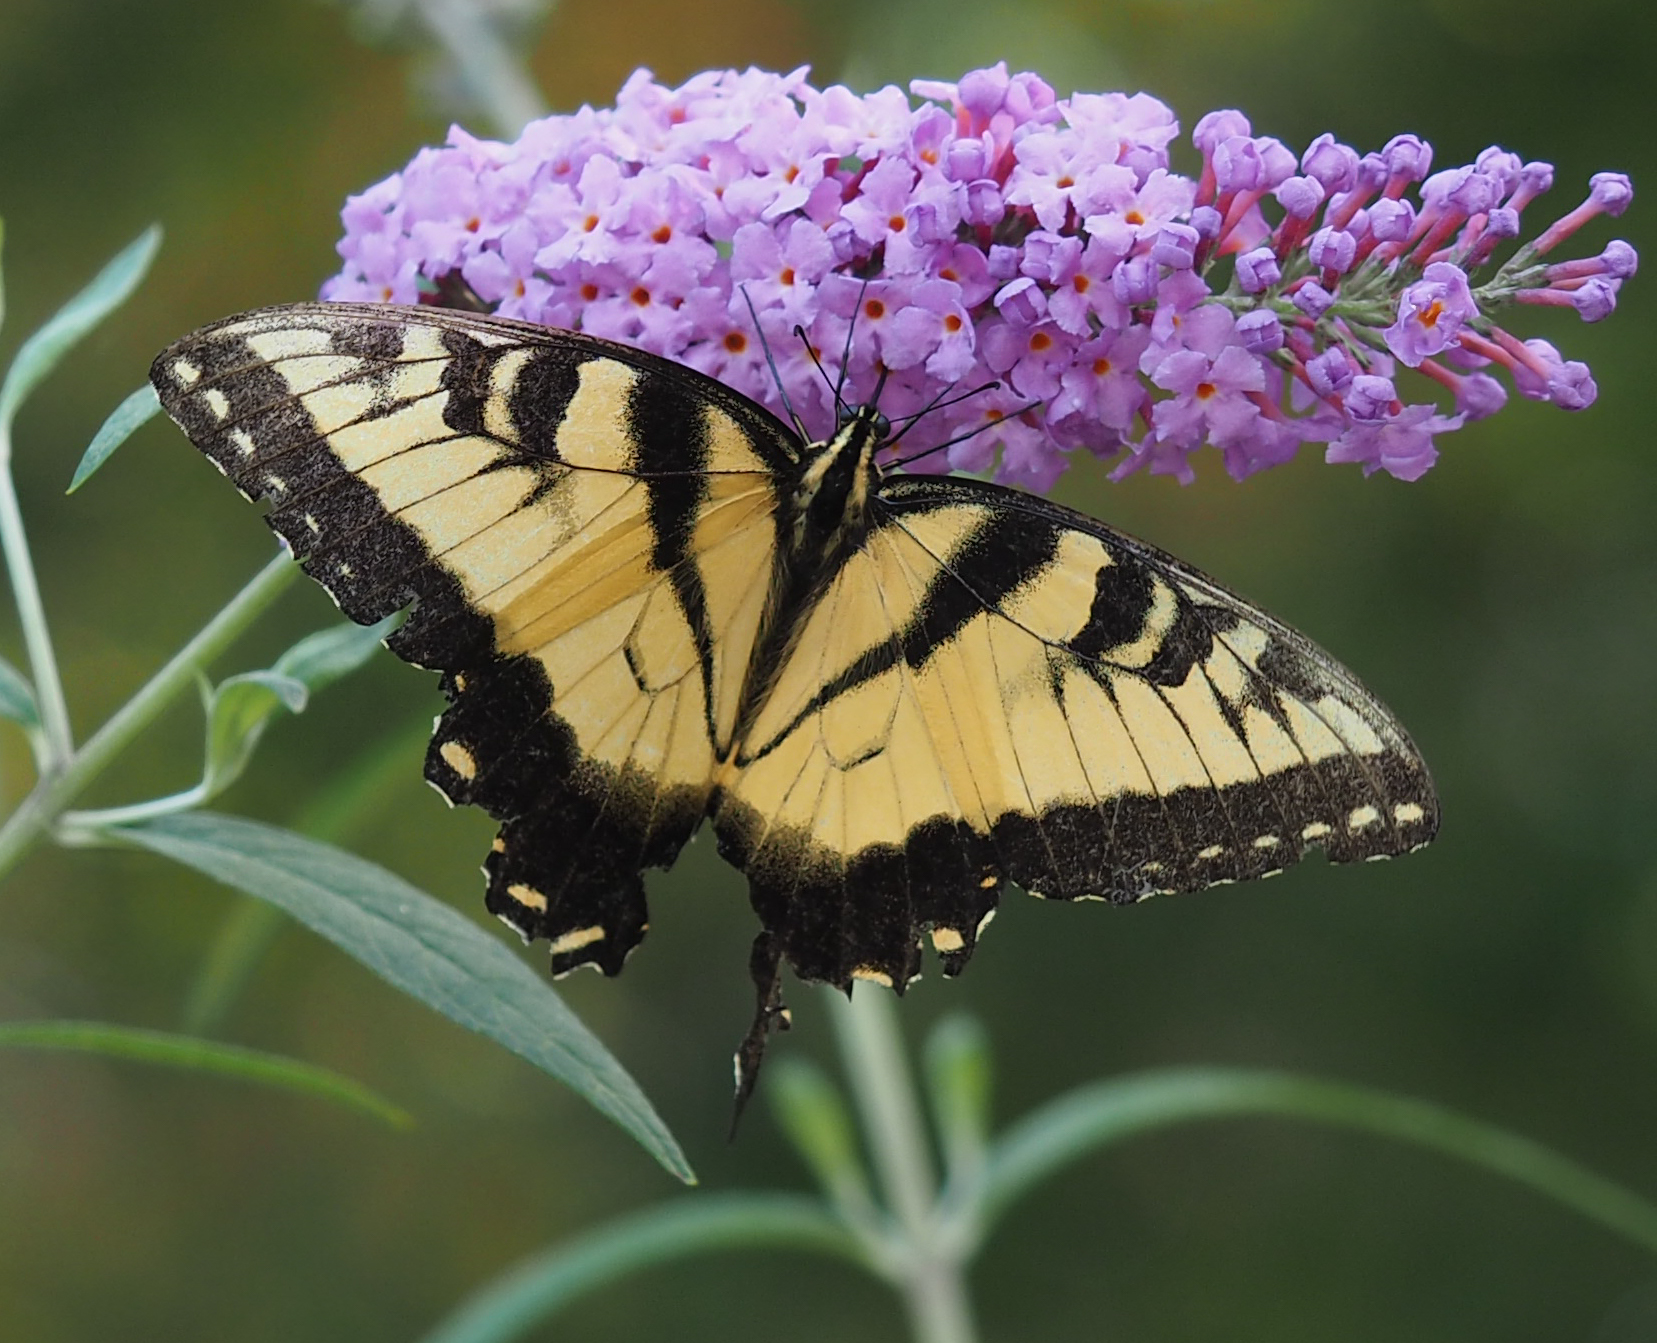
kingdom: Animalia
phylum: Arthropoda
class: Insecta
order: Lepidoptera
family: Papilionidae
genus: Papilio
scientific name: Papilio glaucus
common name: Tiger swallowtail
